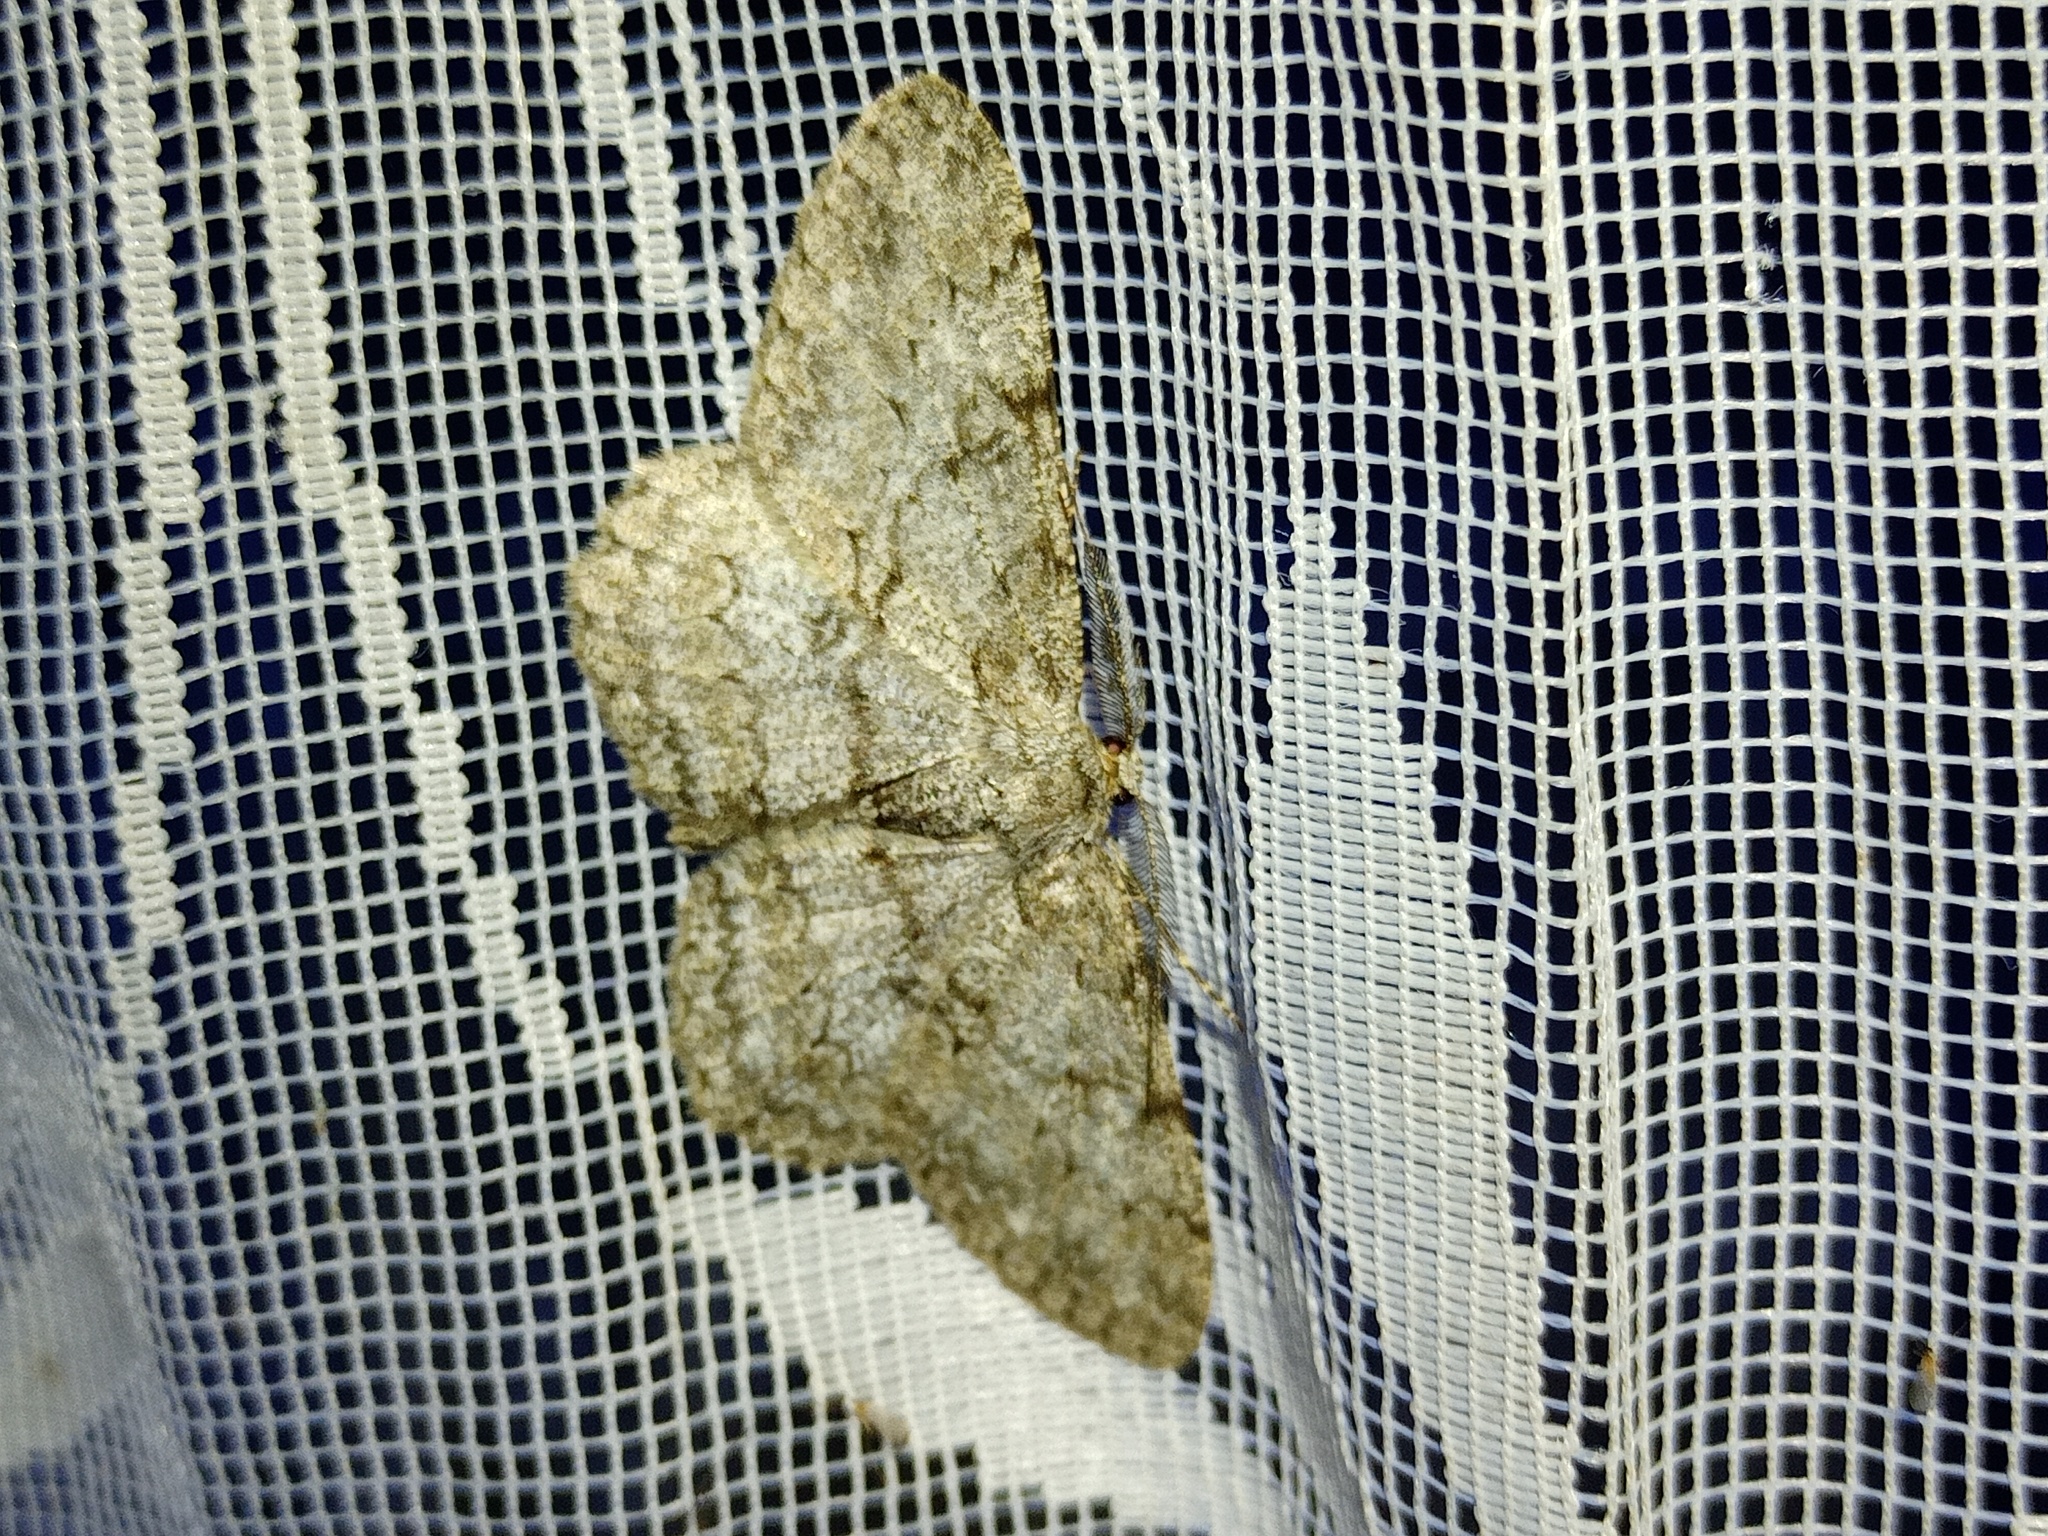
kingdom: Animalia
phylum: Arthropoda
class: Insecta
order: Lepidoptera
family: Geometridae
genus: Hypomecis
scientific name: Hypomecis punctinalis
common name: Pale oak beauty
